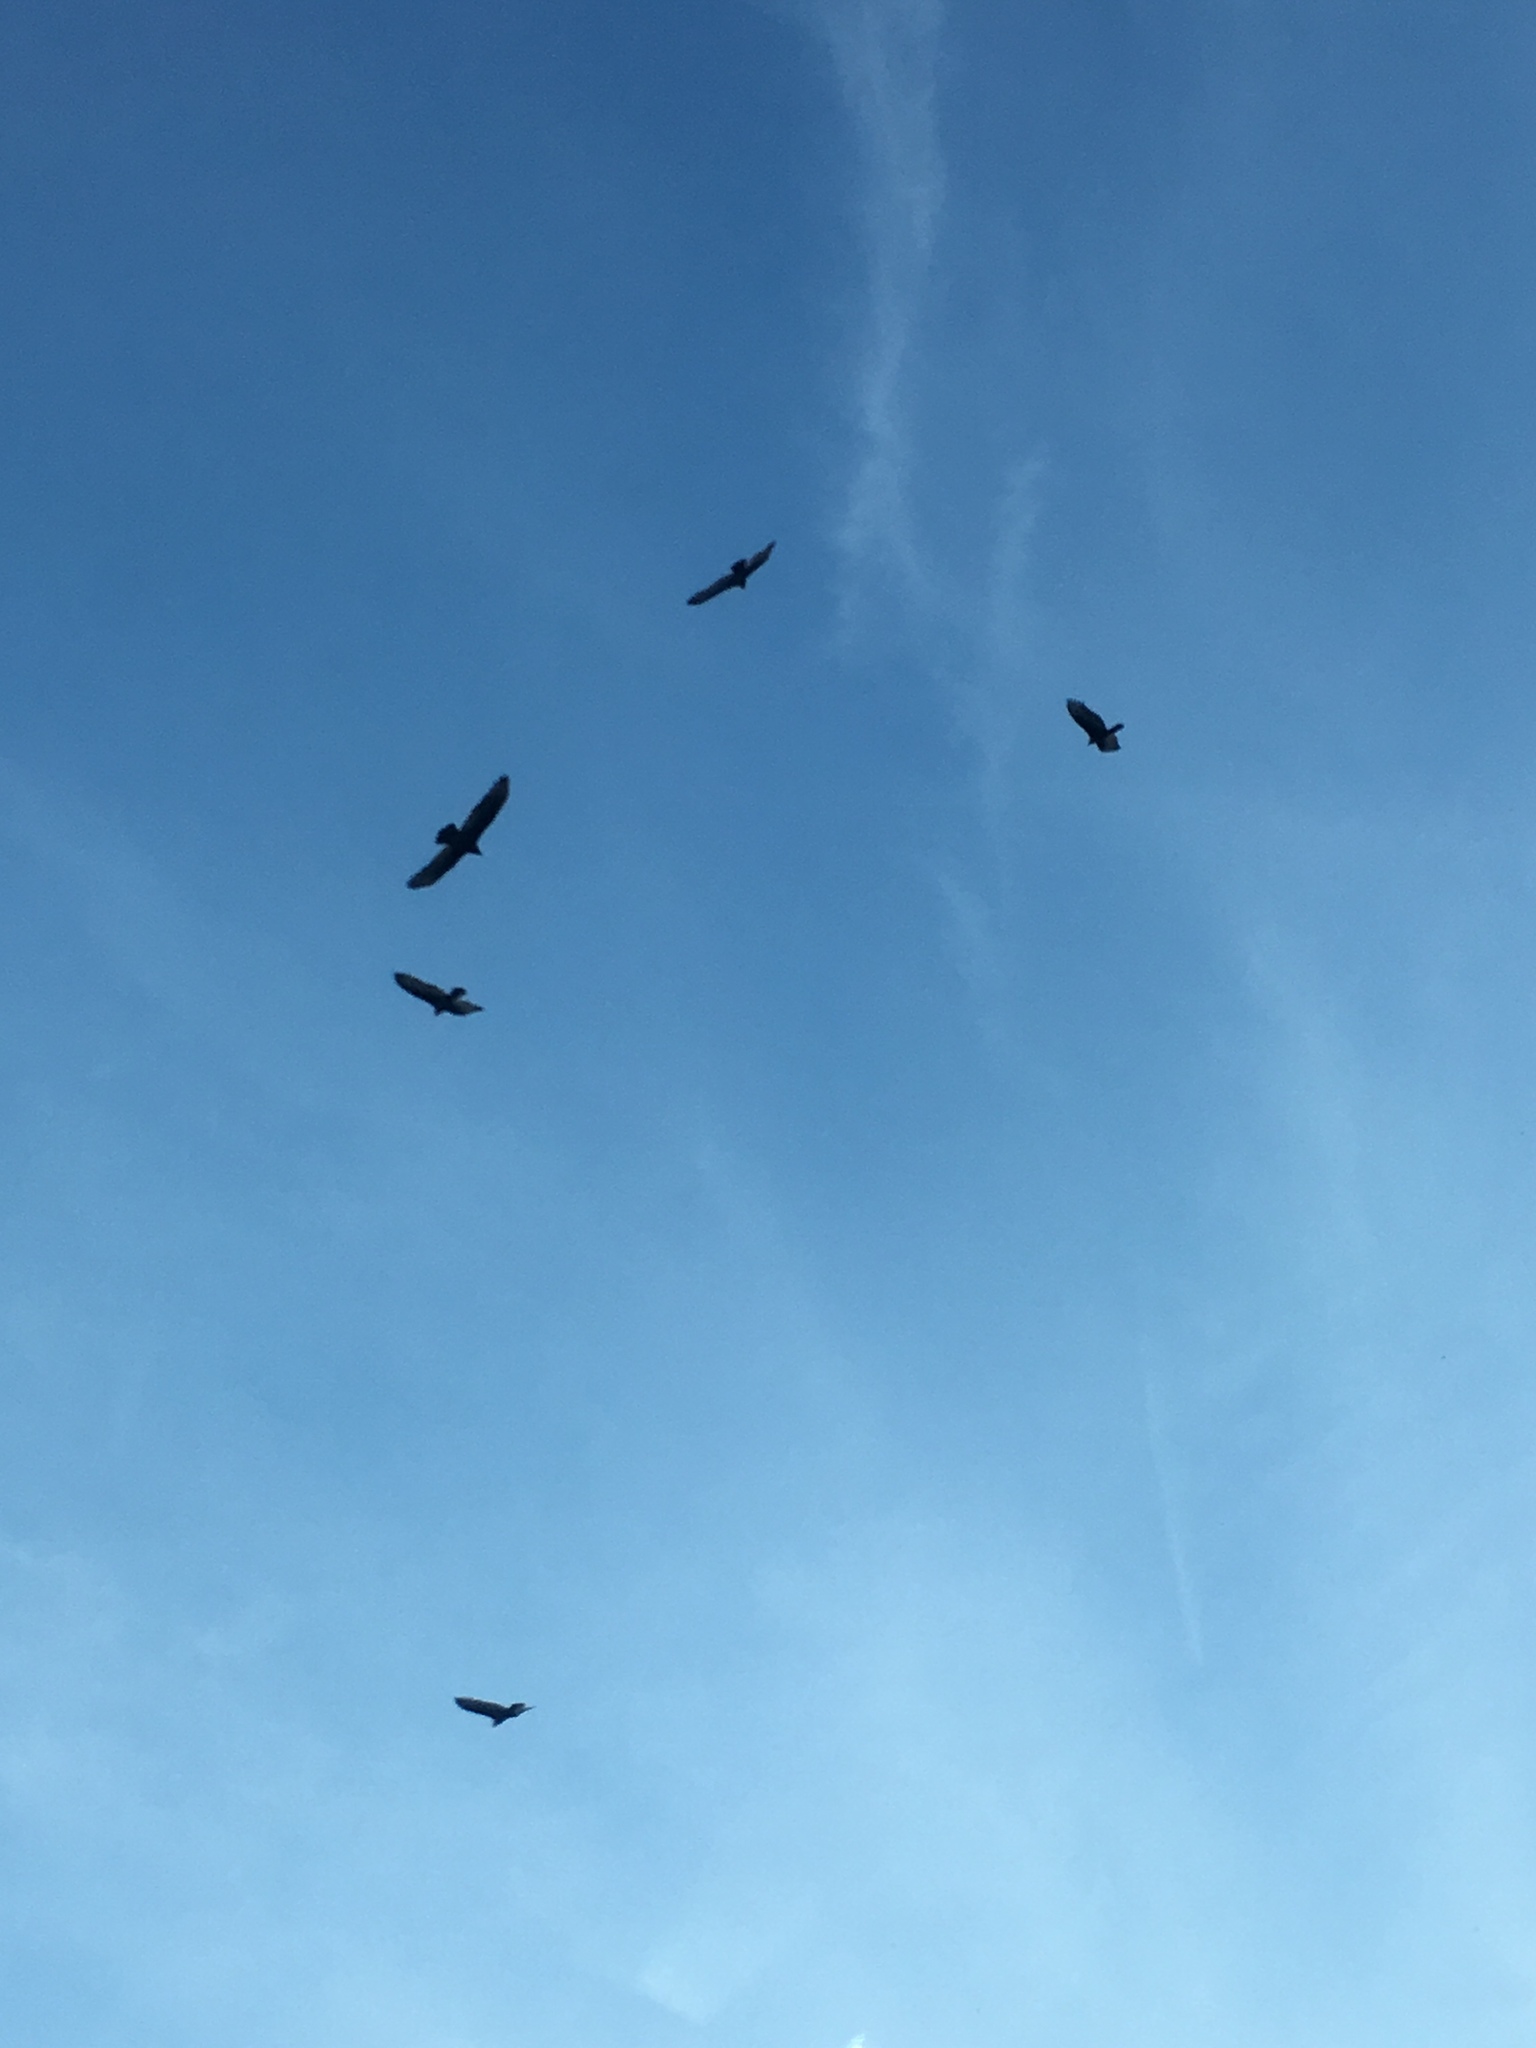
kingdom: Animalia
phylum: Chordata
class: Aves
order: Accipitriformes
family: Cathartidae
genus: Cathartes
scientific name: Cathartes aura
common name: Turkey vulture
